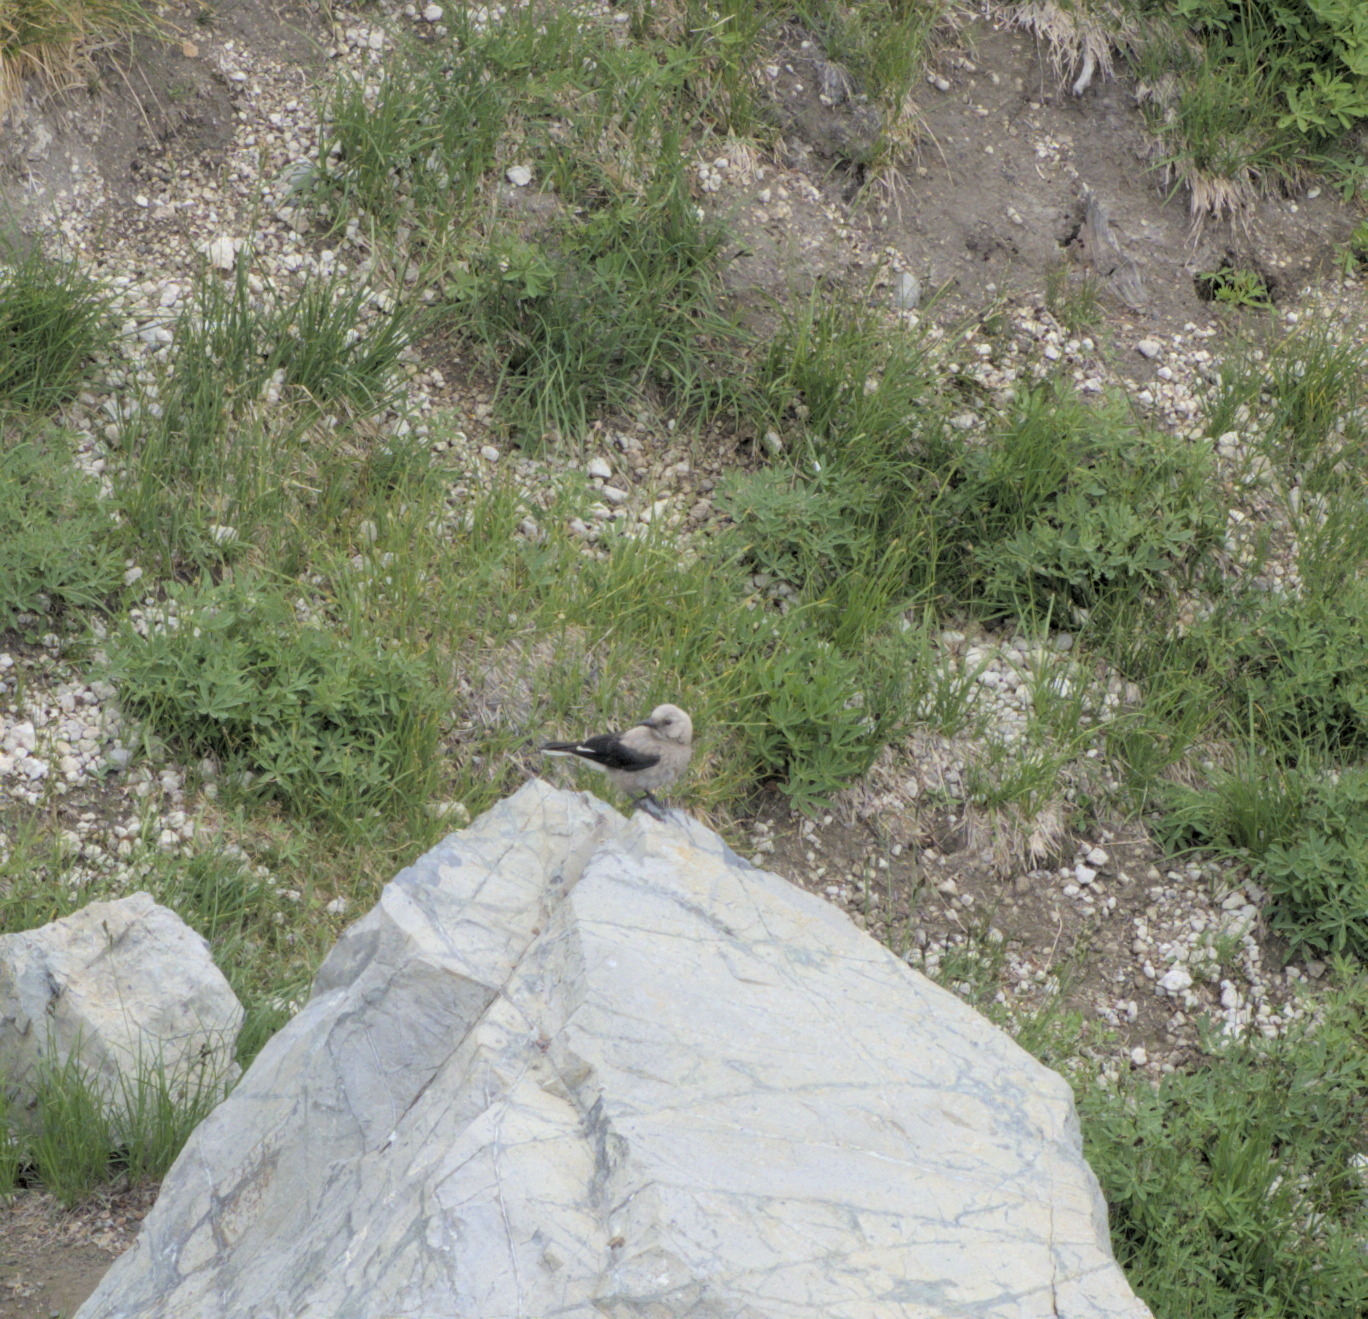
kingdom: Animalia
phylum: Chordata
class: Aves
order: Passeriformes
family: Corvidae
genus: Nucifraga
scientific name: Nucifraga columbiana
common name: Clark's nutcracker
